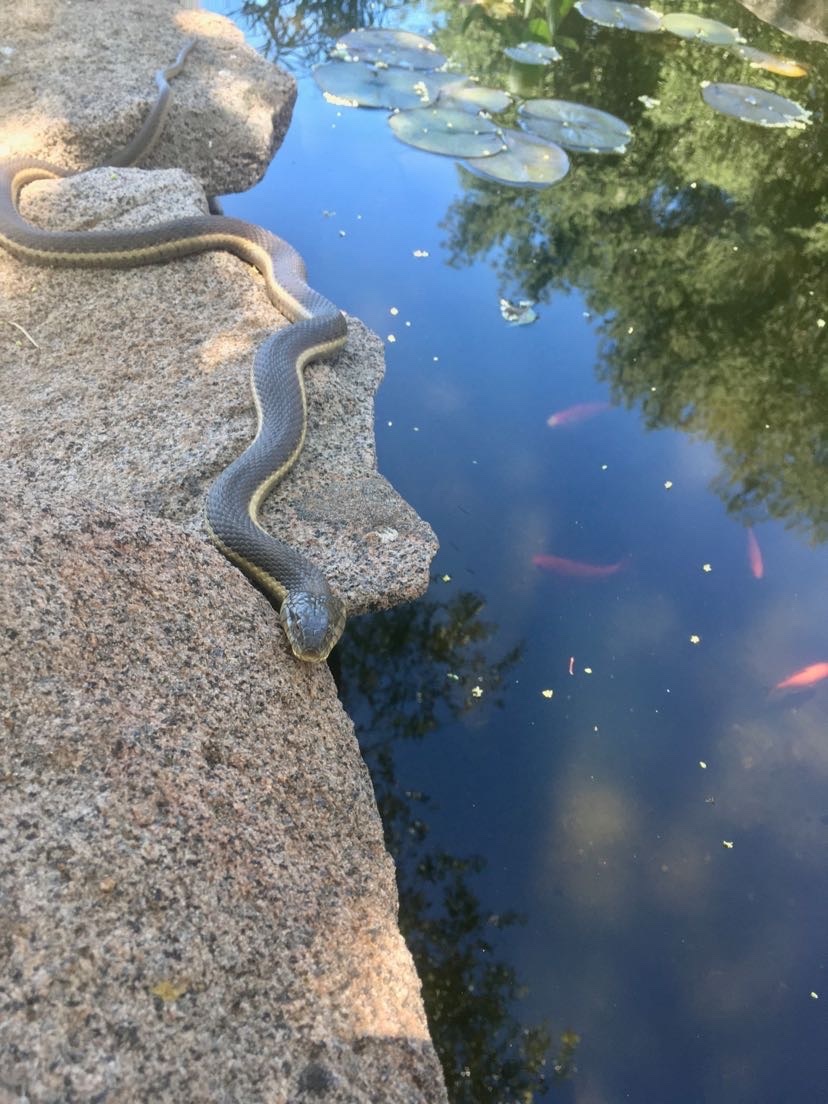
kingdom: Animalia
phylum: Chordata
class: Squamata
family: Colubridae
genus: Thamnophis
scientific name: Thamnophis hammondii
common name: Two-striped garter snake
